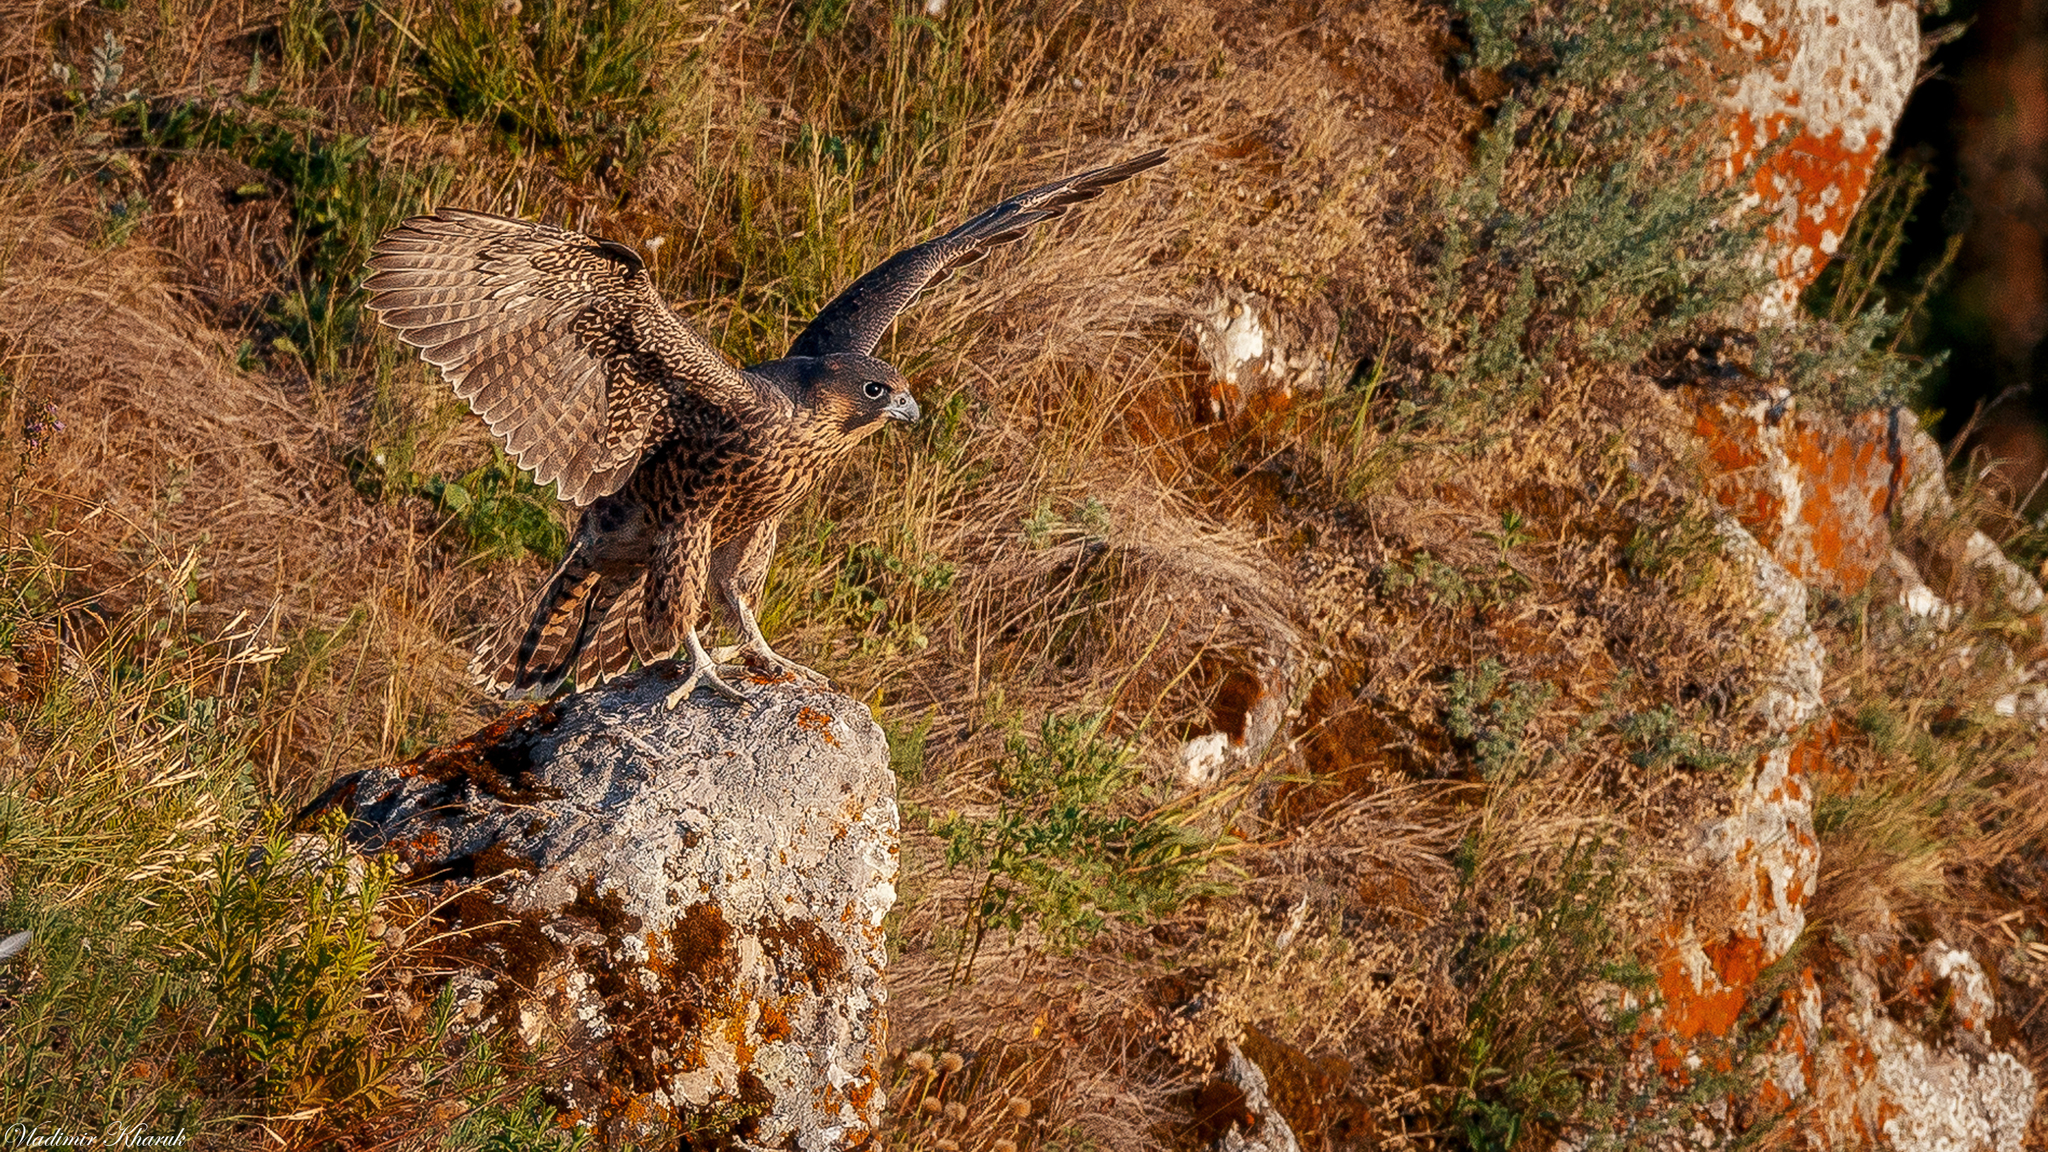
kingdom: Animalia
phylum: Chordata
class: Aves
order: Falconiformes
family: Falconidae
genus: Falco
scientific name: Falco peregrinus
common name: Peregrine falcon
